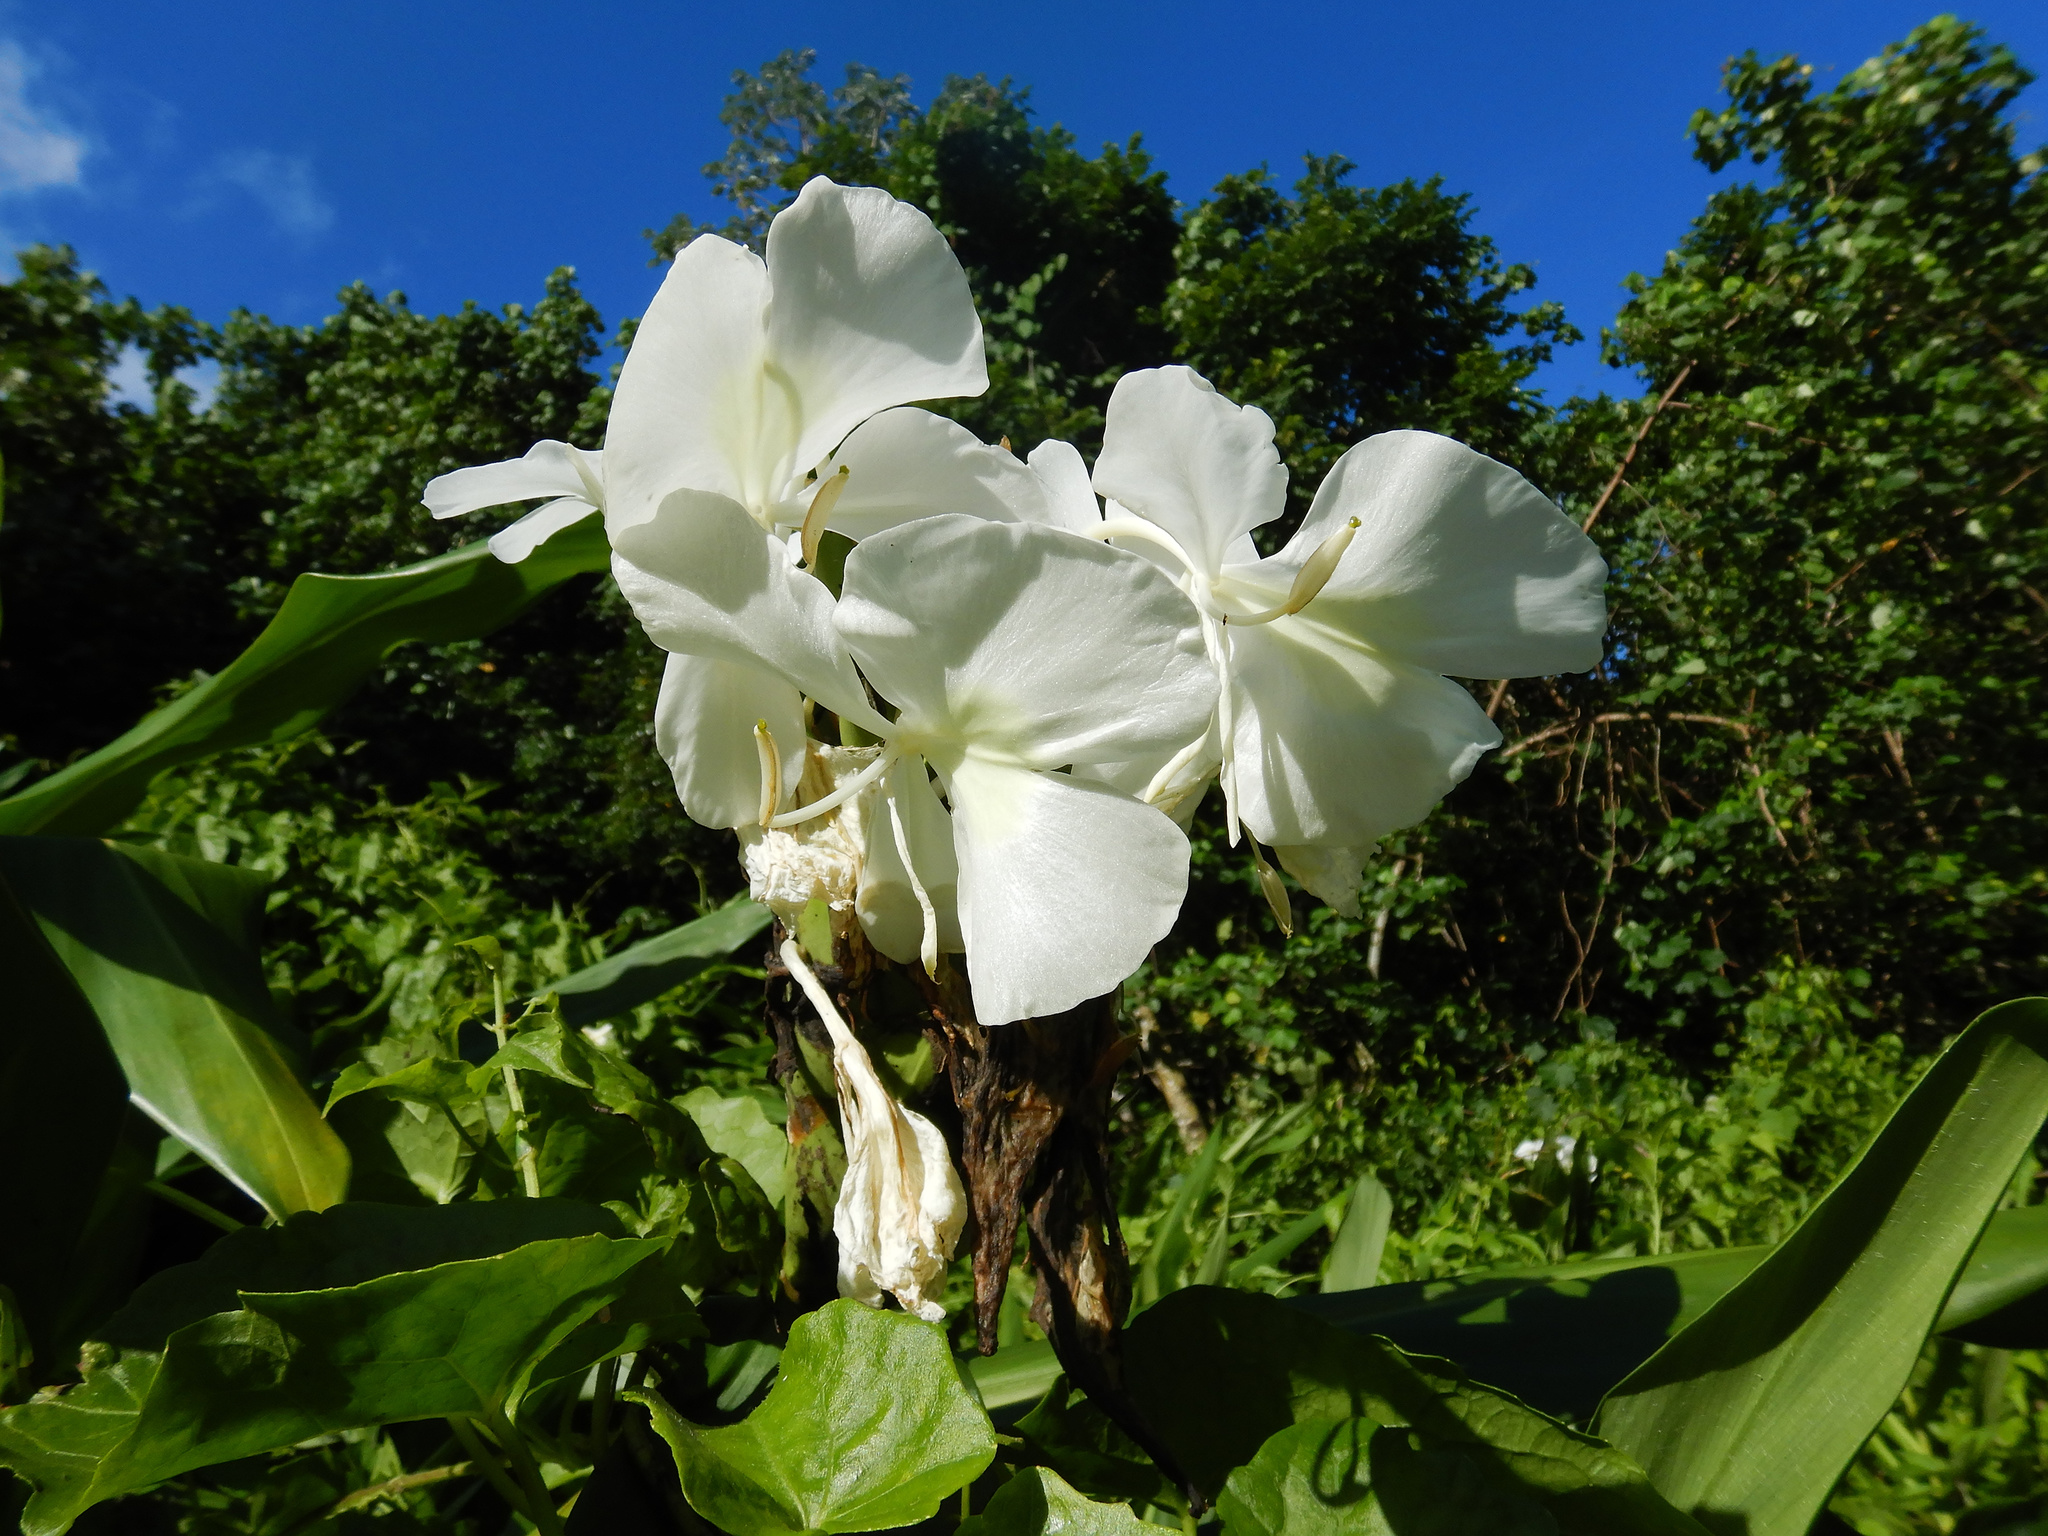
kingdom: Plantae
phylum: Tracheophyta
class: Liliopsida
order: Zingiberales
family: Zingiberaceae
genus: Hedychium
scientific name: Hedychium coronarium
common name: White garland-lily
